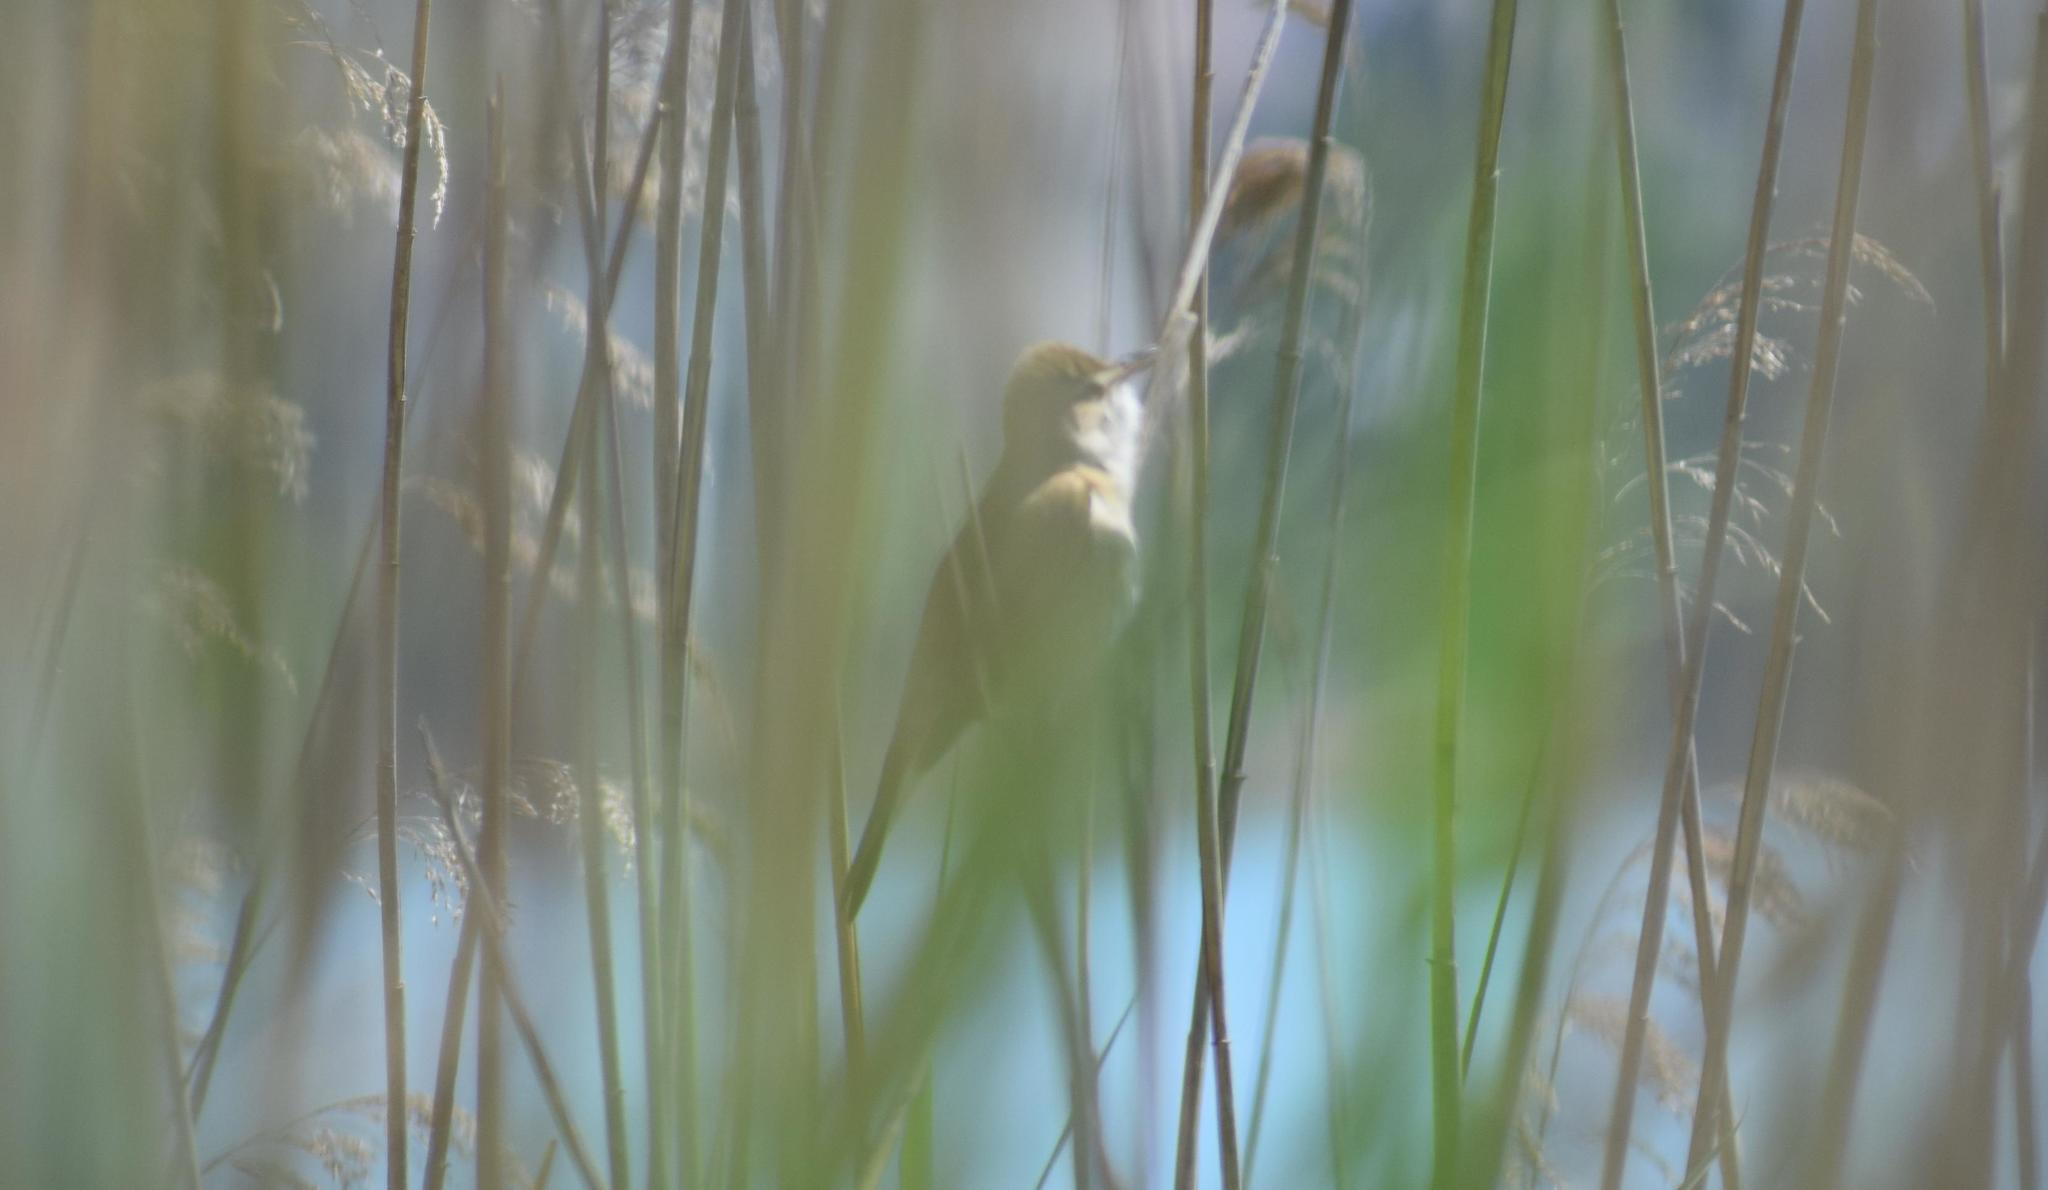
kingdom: Animalia
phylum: Chordata
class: Aves
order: Passeriformes
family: Acrocephalidae
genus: Acrocephalus
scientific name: Acrocephalus arundinaceus
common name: Great reed warbler
